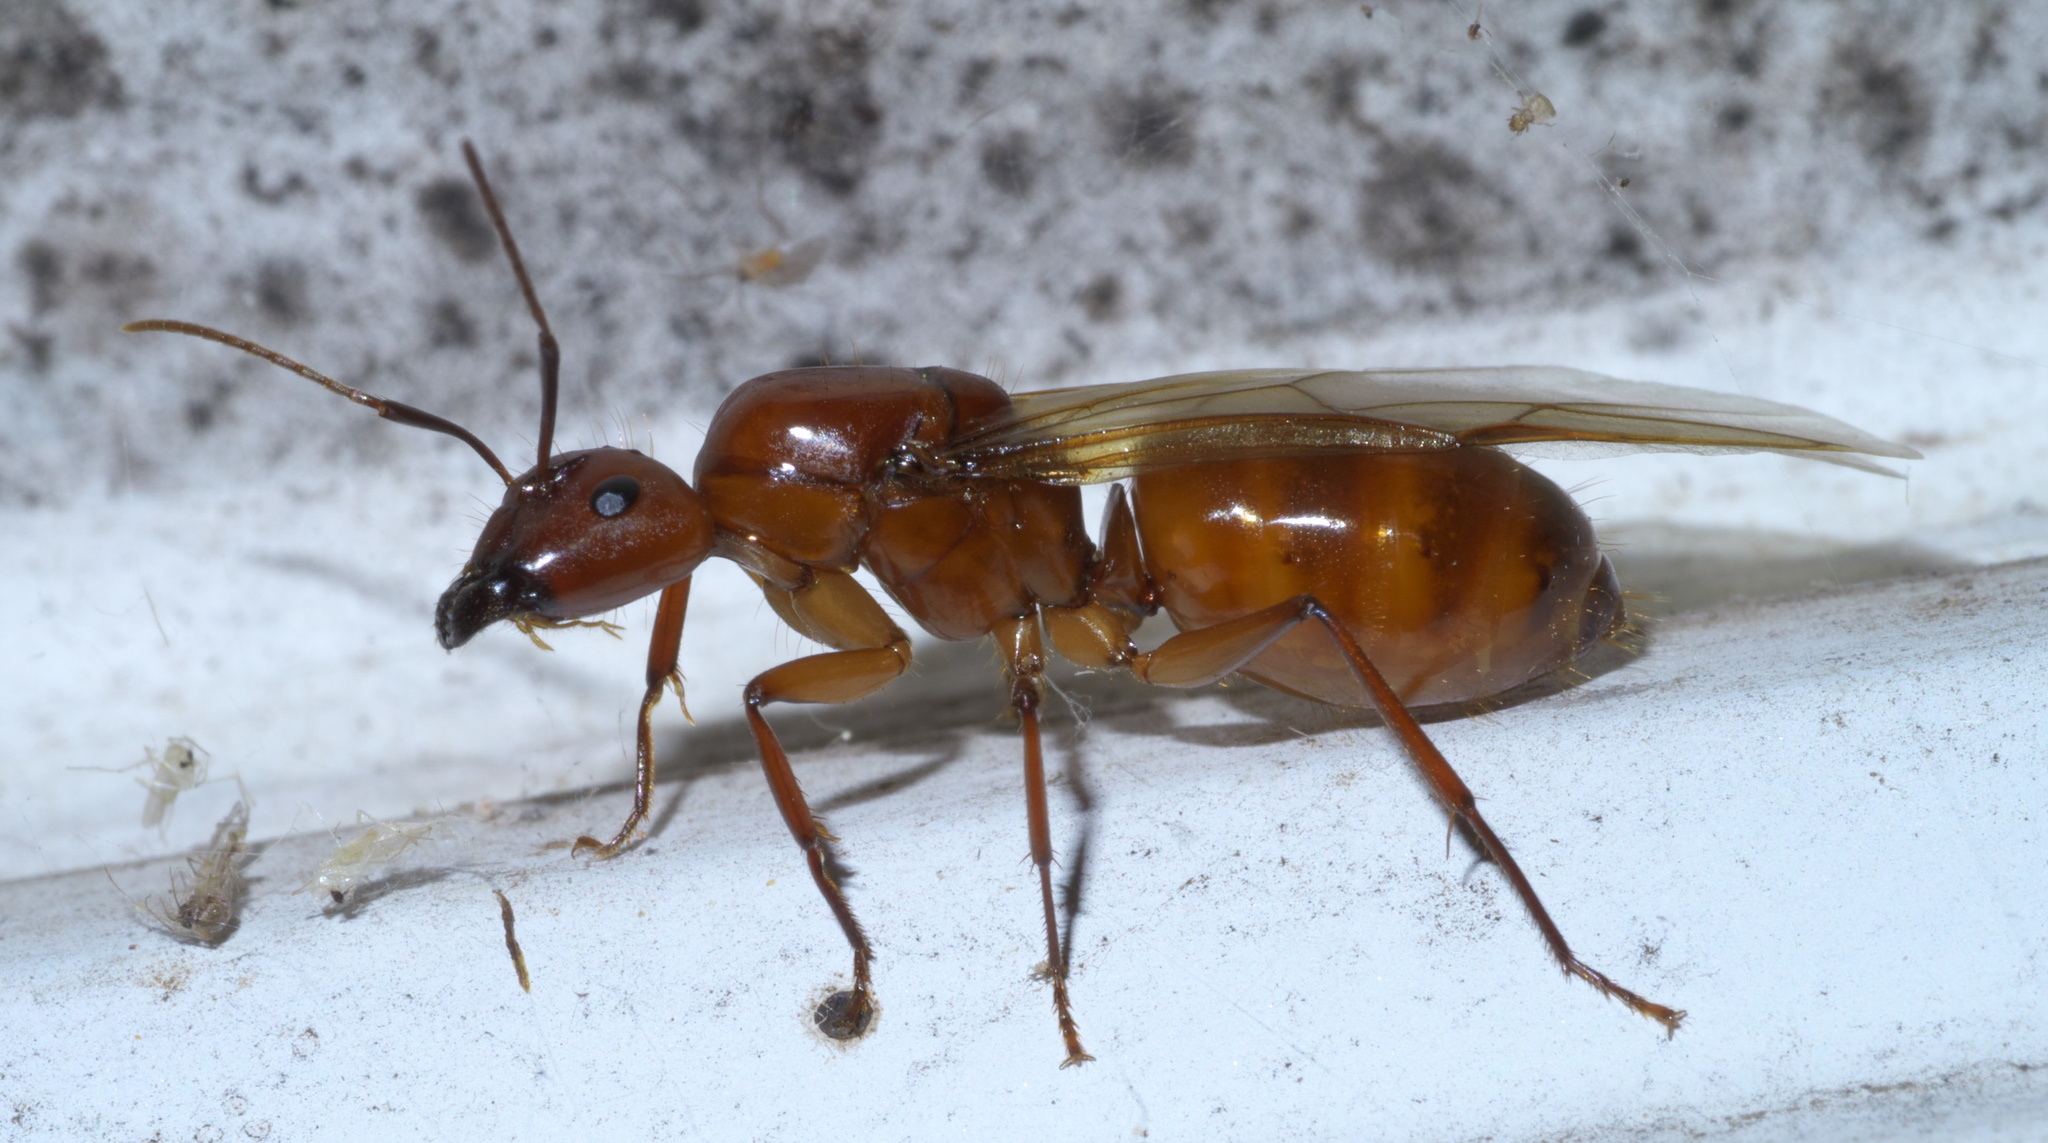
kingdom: Animalia
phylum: Arthropoda
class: Insecta
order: Hymenoptera
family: Formicidae
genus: Camponotus
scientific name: Camponotus castaneus
